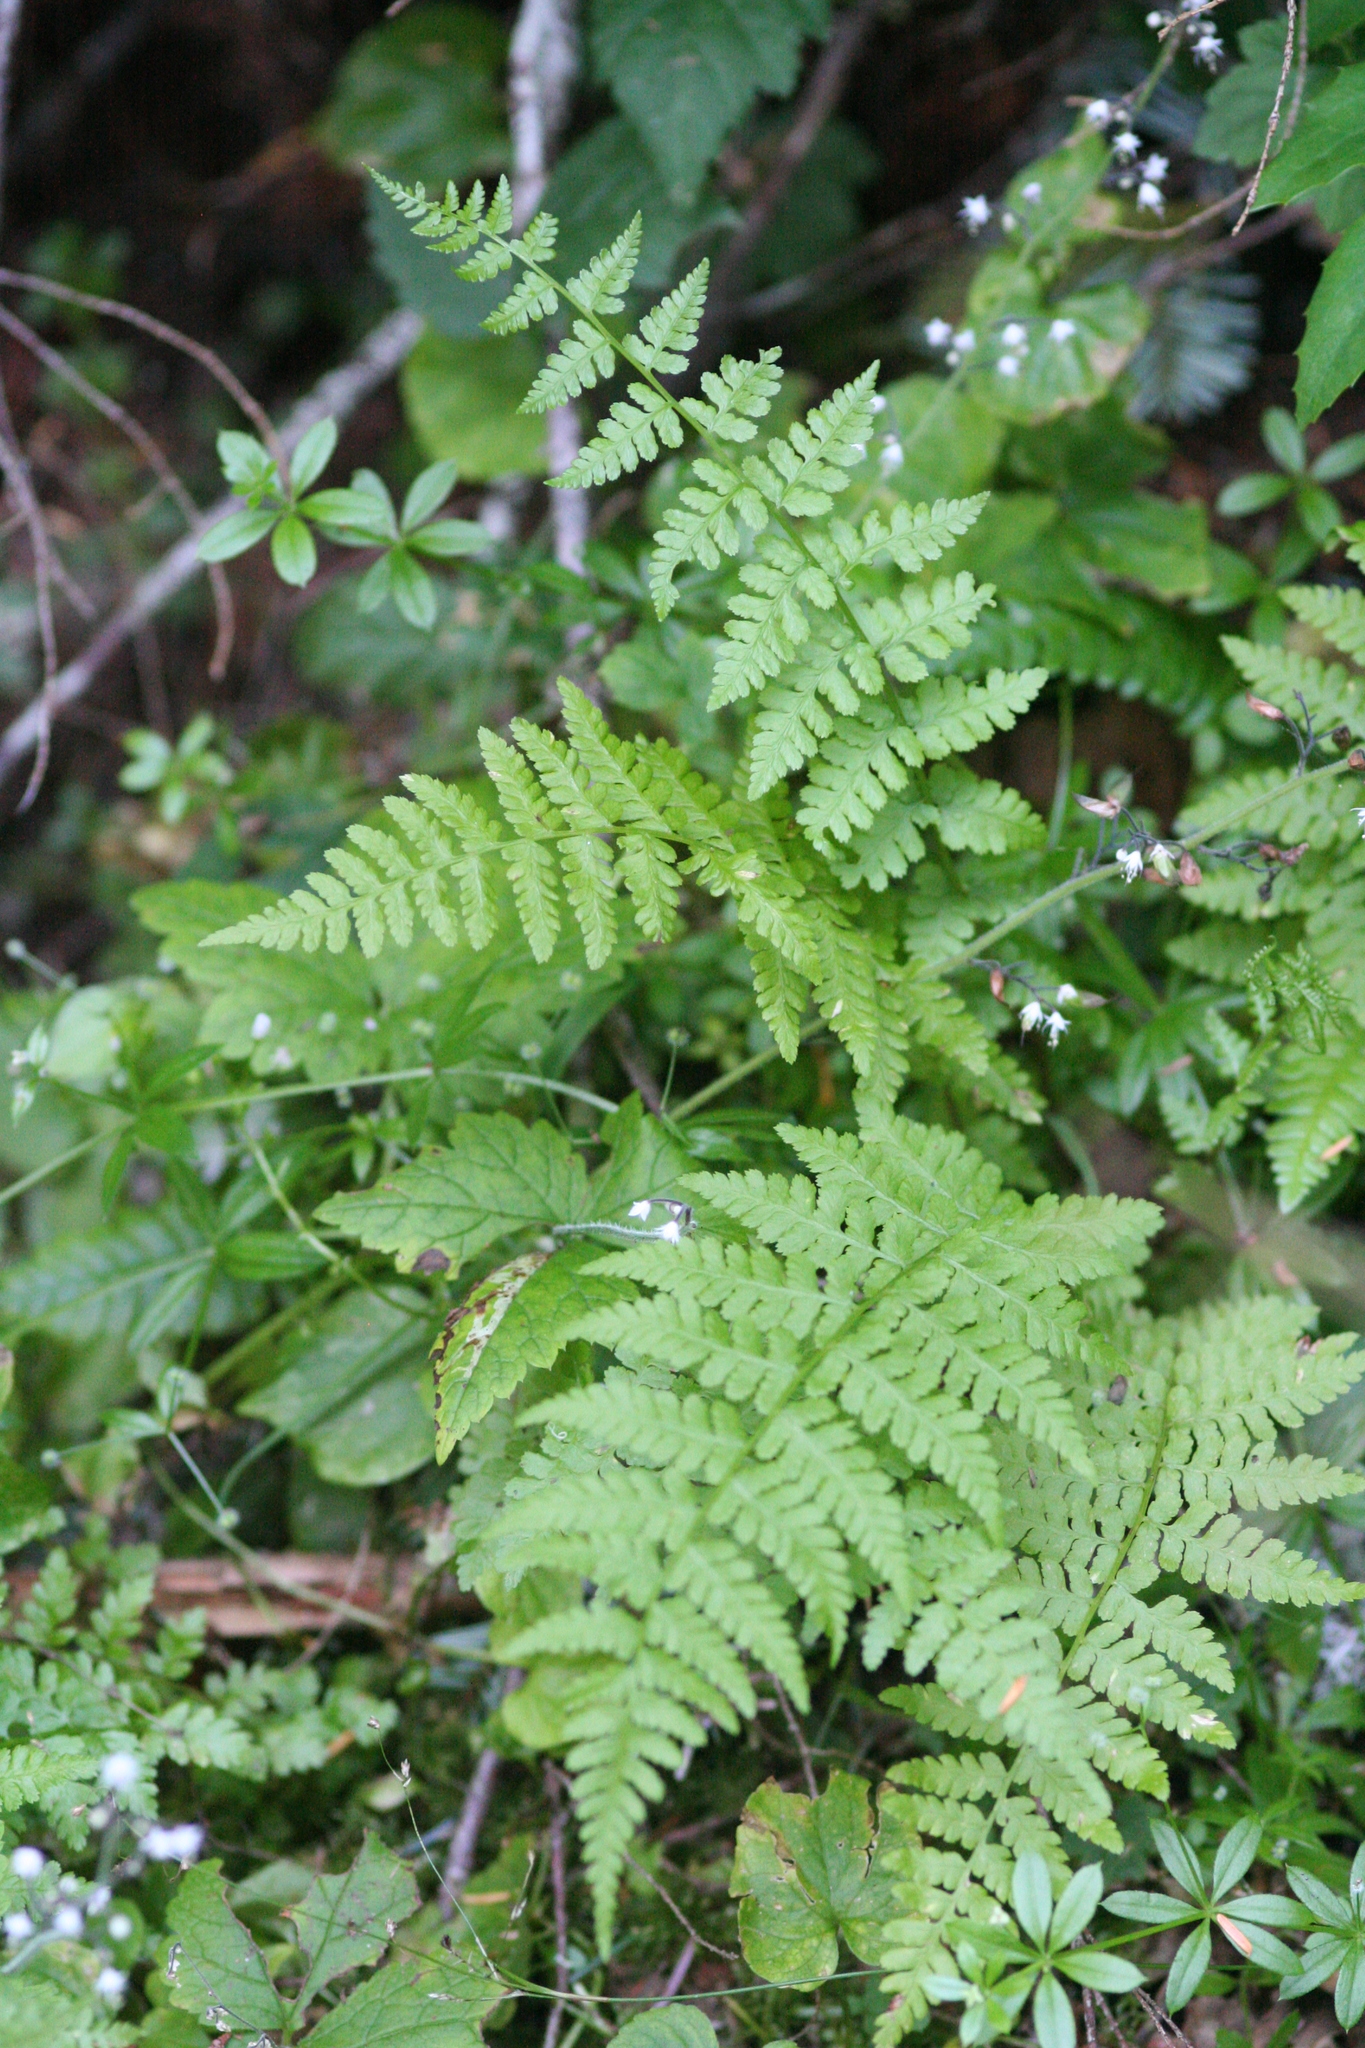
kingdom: Plantae
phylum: Tracheophyta
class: Polypodiopsida
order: Polypodiales
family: Athyriaceae
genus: Athyrium
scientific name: Athyrium filix-femina
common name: Lady fern
